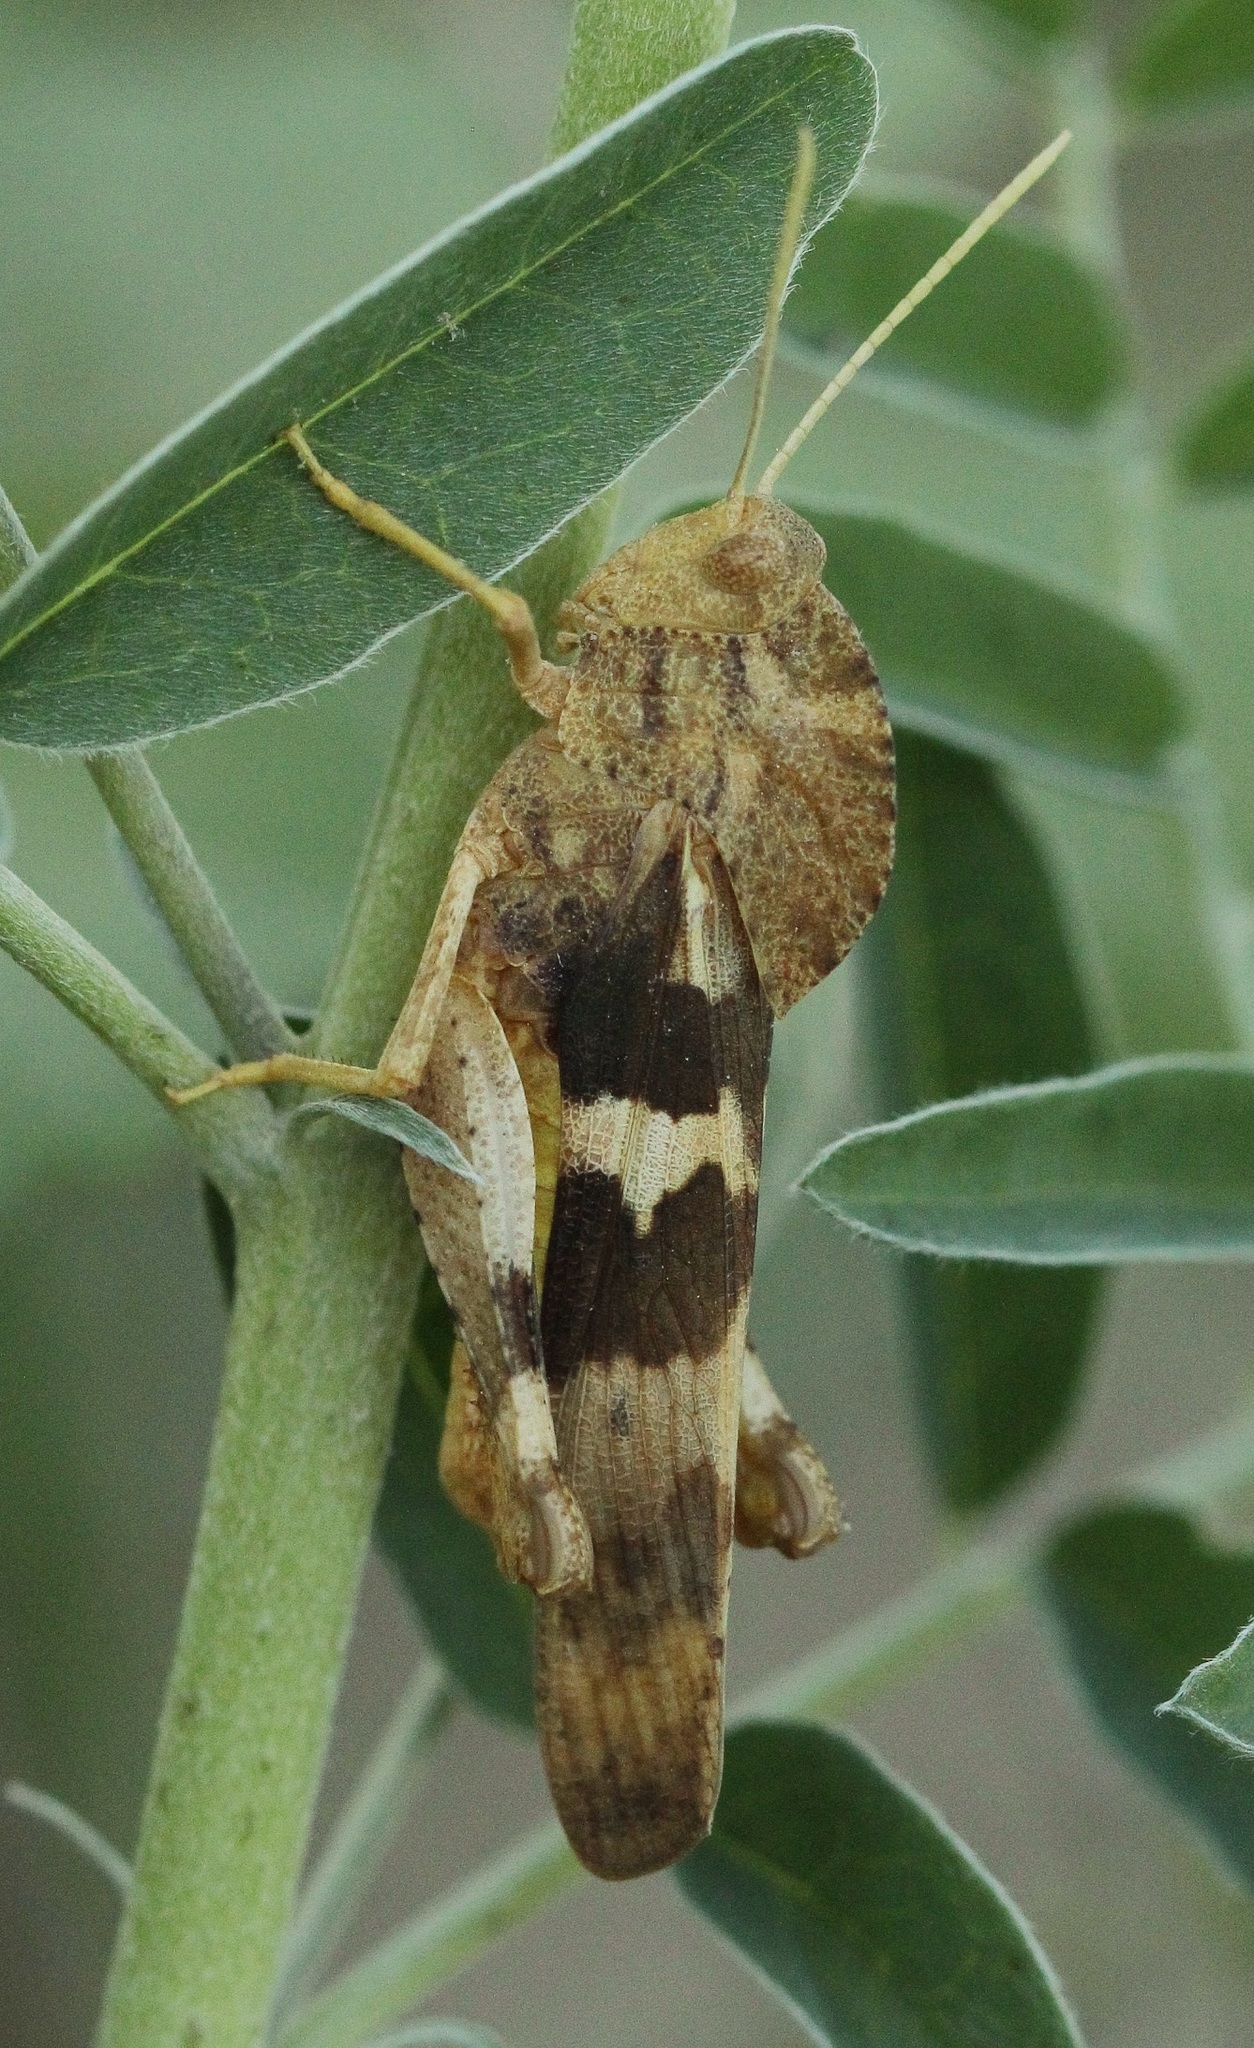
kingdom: Animalia
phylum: Arthropoda
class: Insecta
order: Orthoptera
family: Acrididae
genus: Pyrgodera
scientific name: Pyrgodera armata
